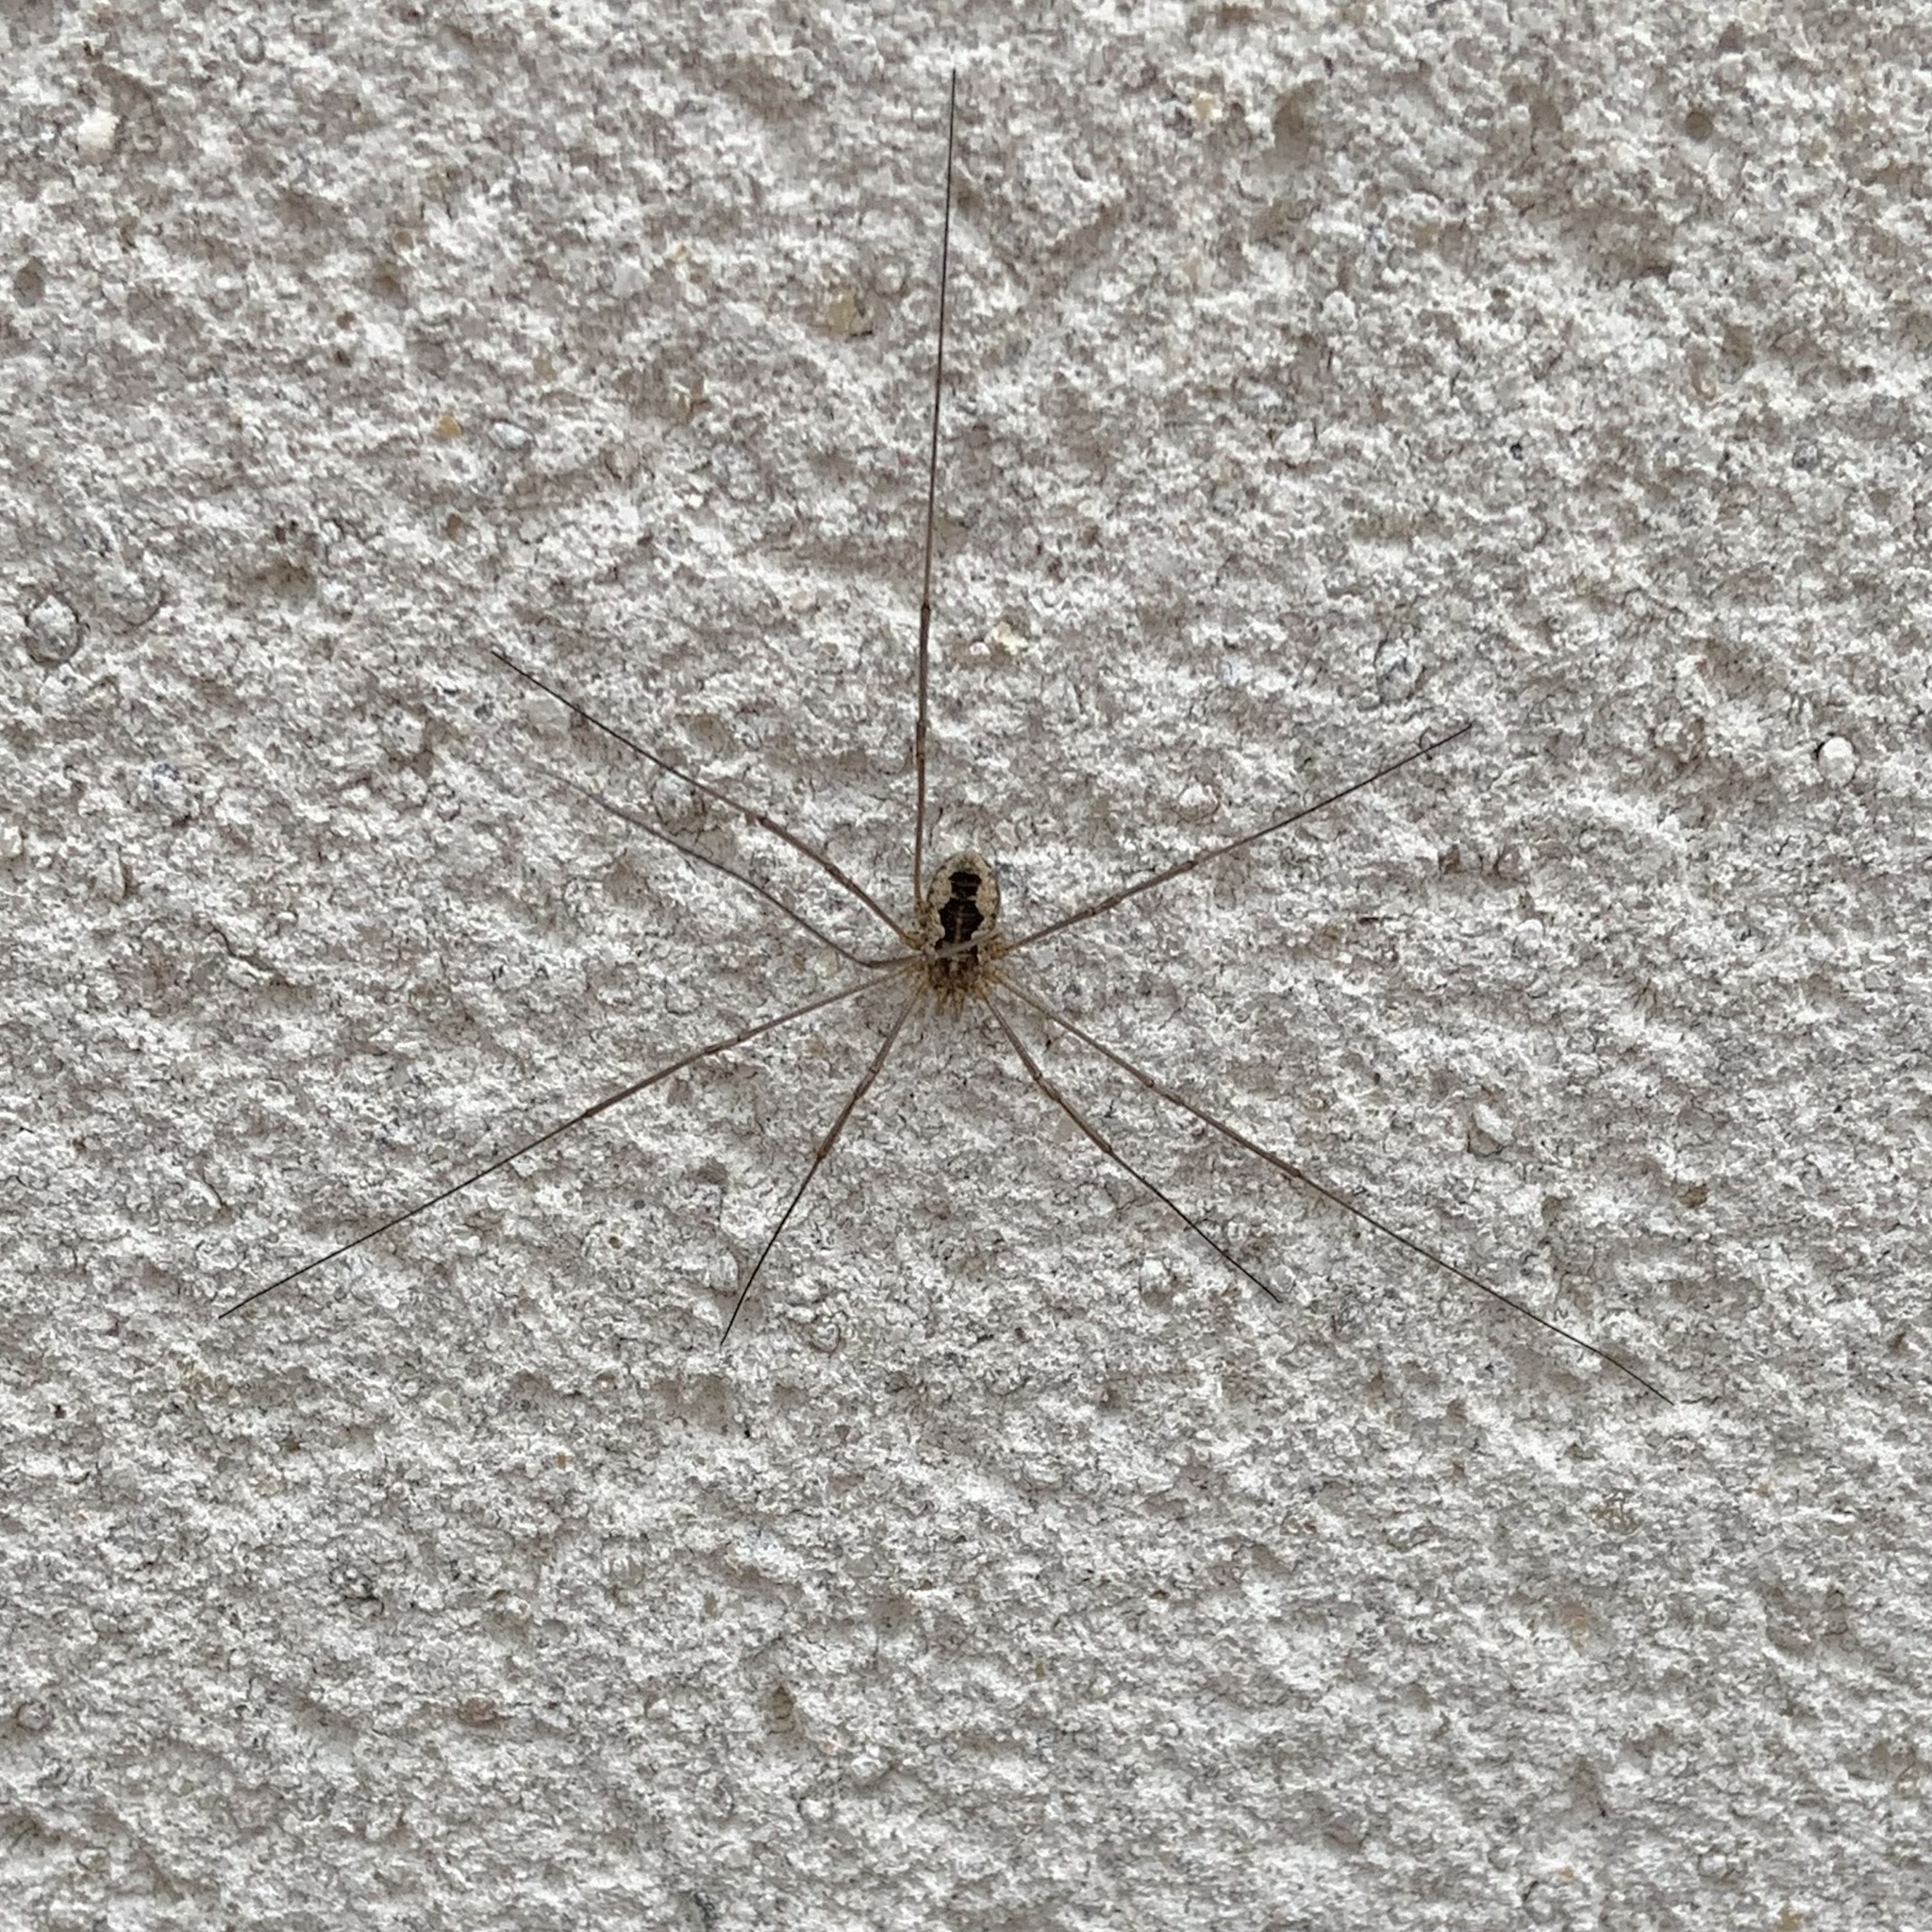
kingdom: Animalia
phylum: Arthropoda
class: Arachnida
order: Opiliones
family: Phalangiidae
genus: Phalangium
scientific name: Phalangium opilio
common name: Daddy longleg
